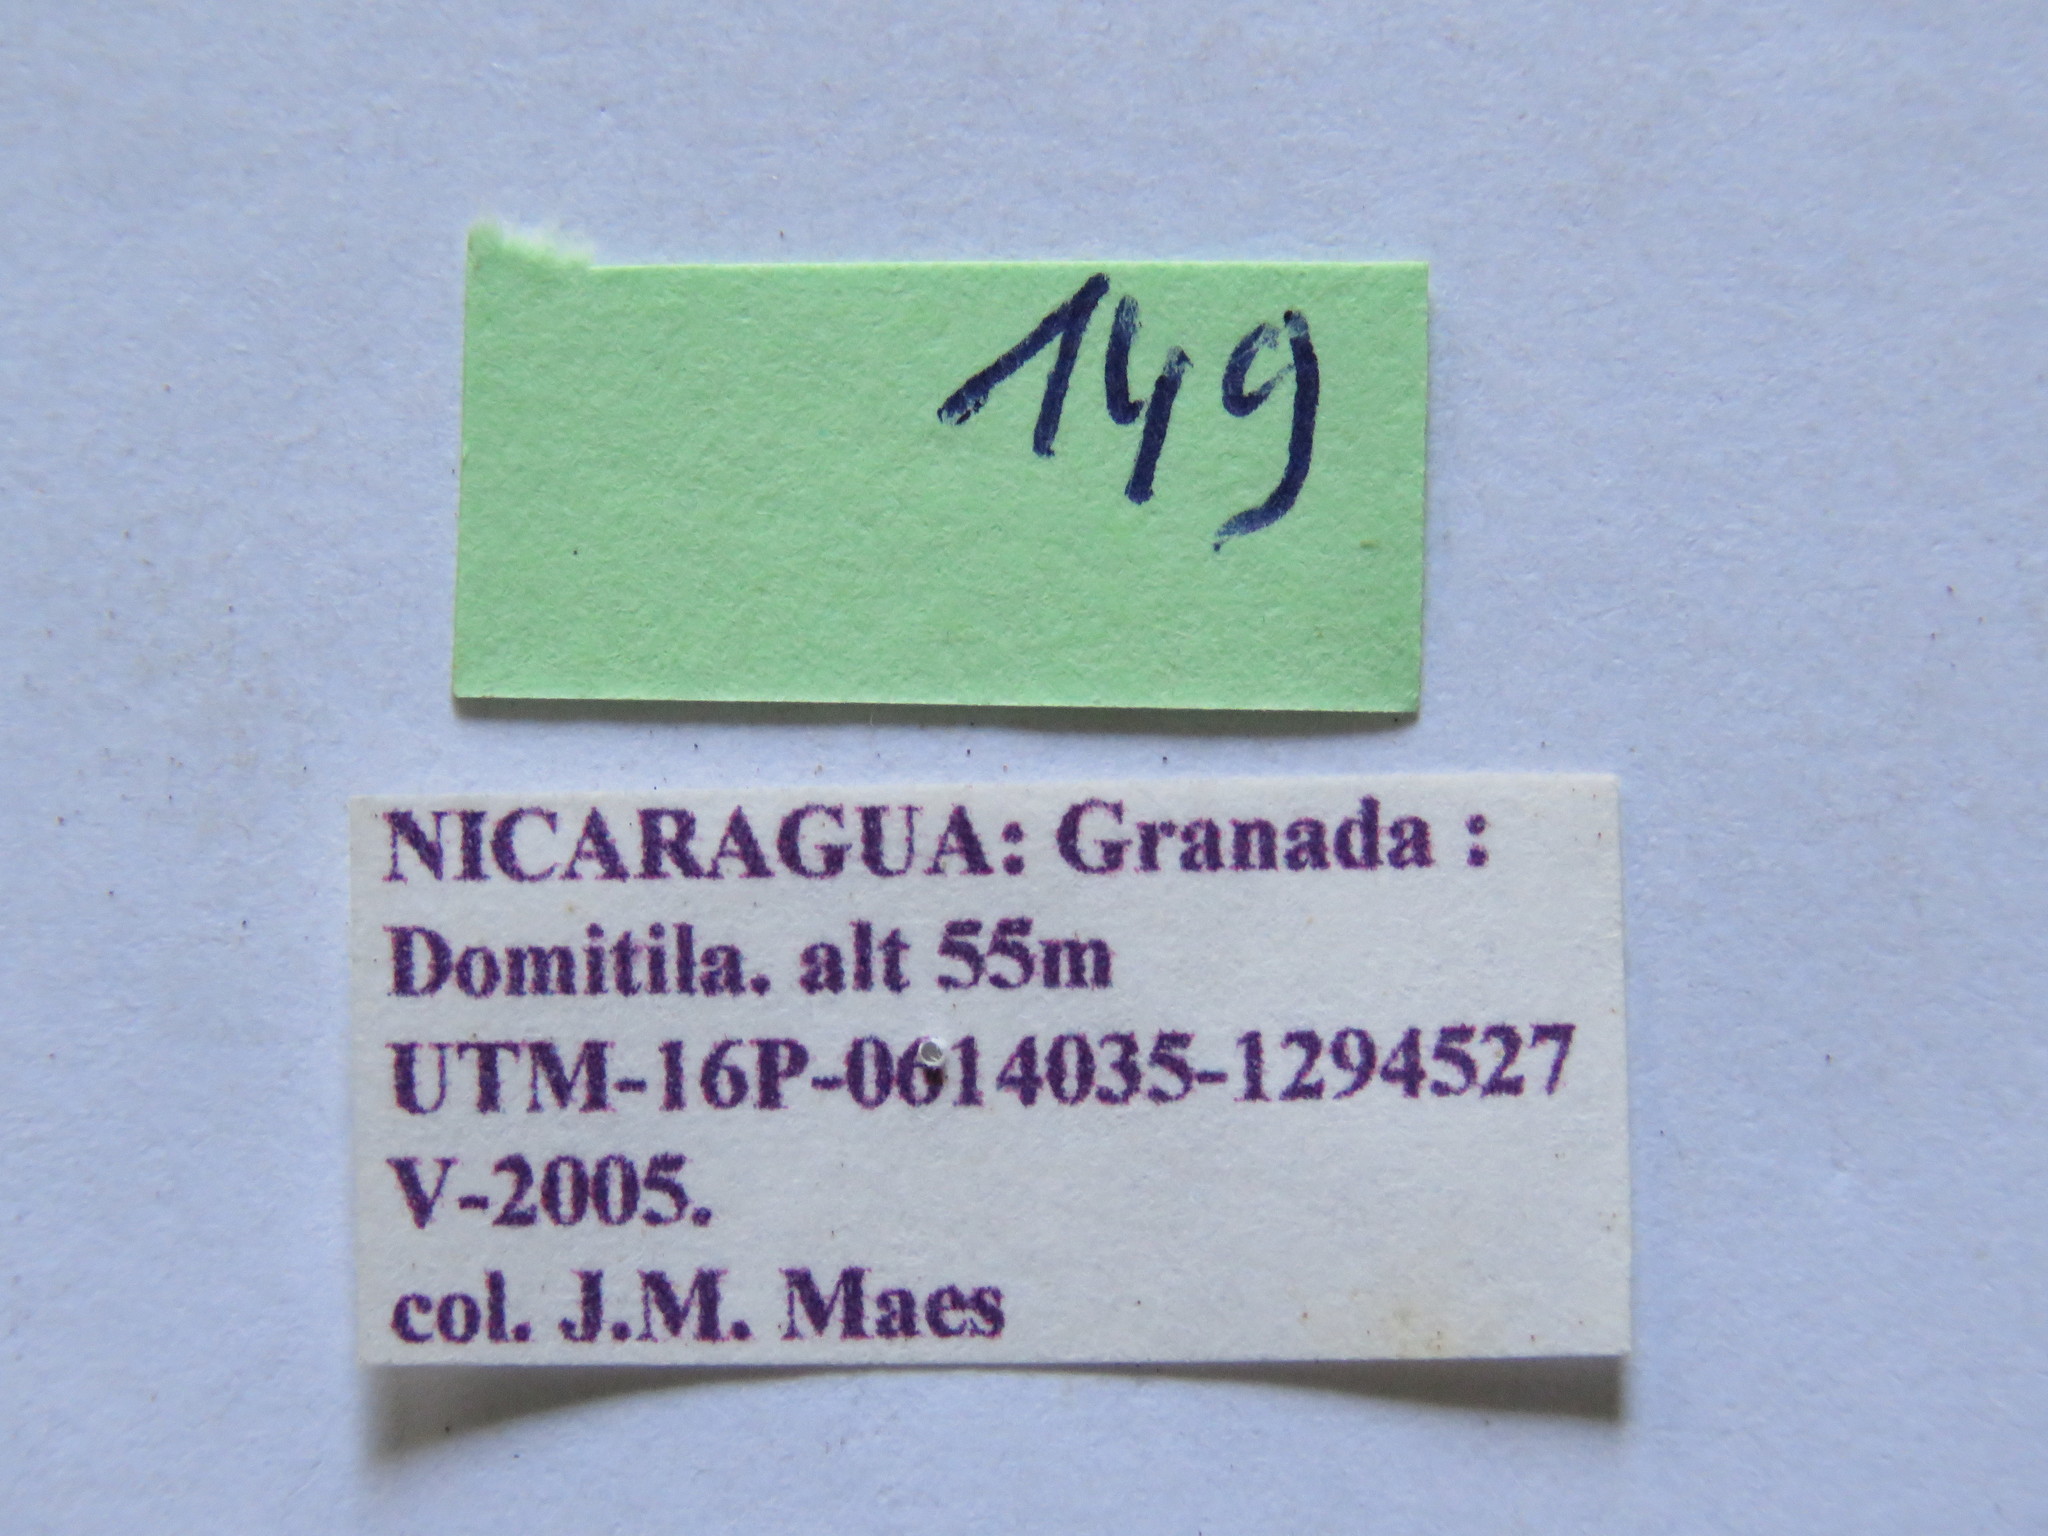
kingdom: Animalia
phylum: Arthropoda
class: Insecta
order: Hemiptera
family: Coreidae
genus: Piezogaster
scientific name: Piezogaster chontalensis
